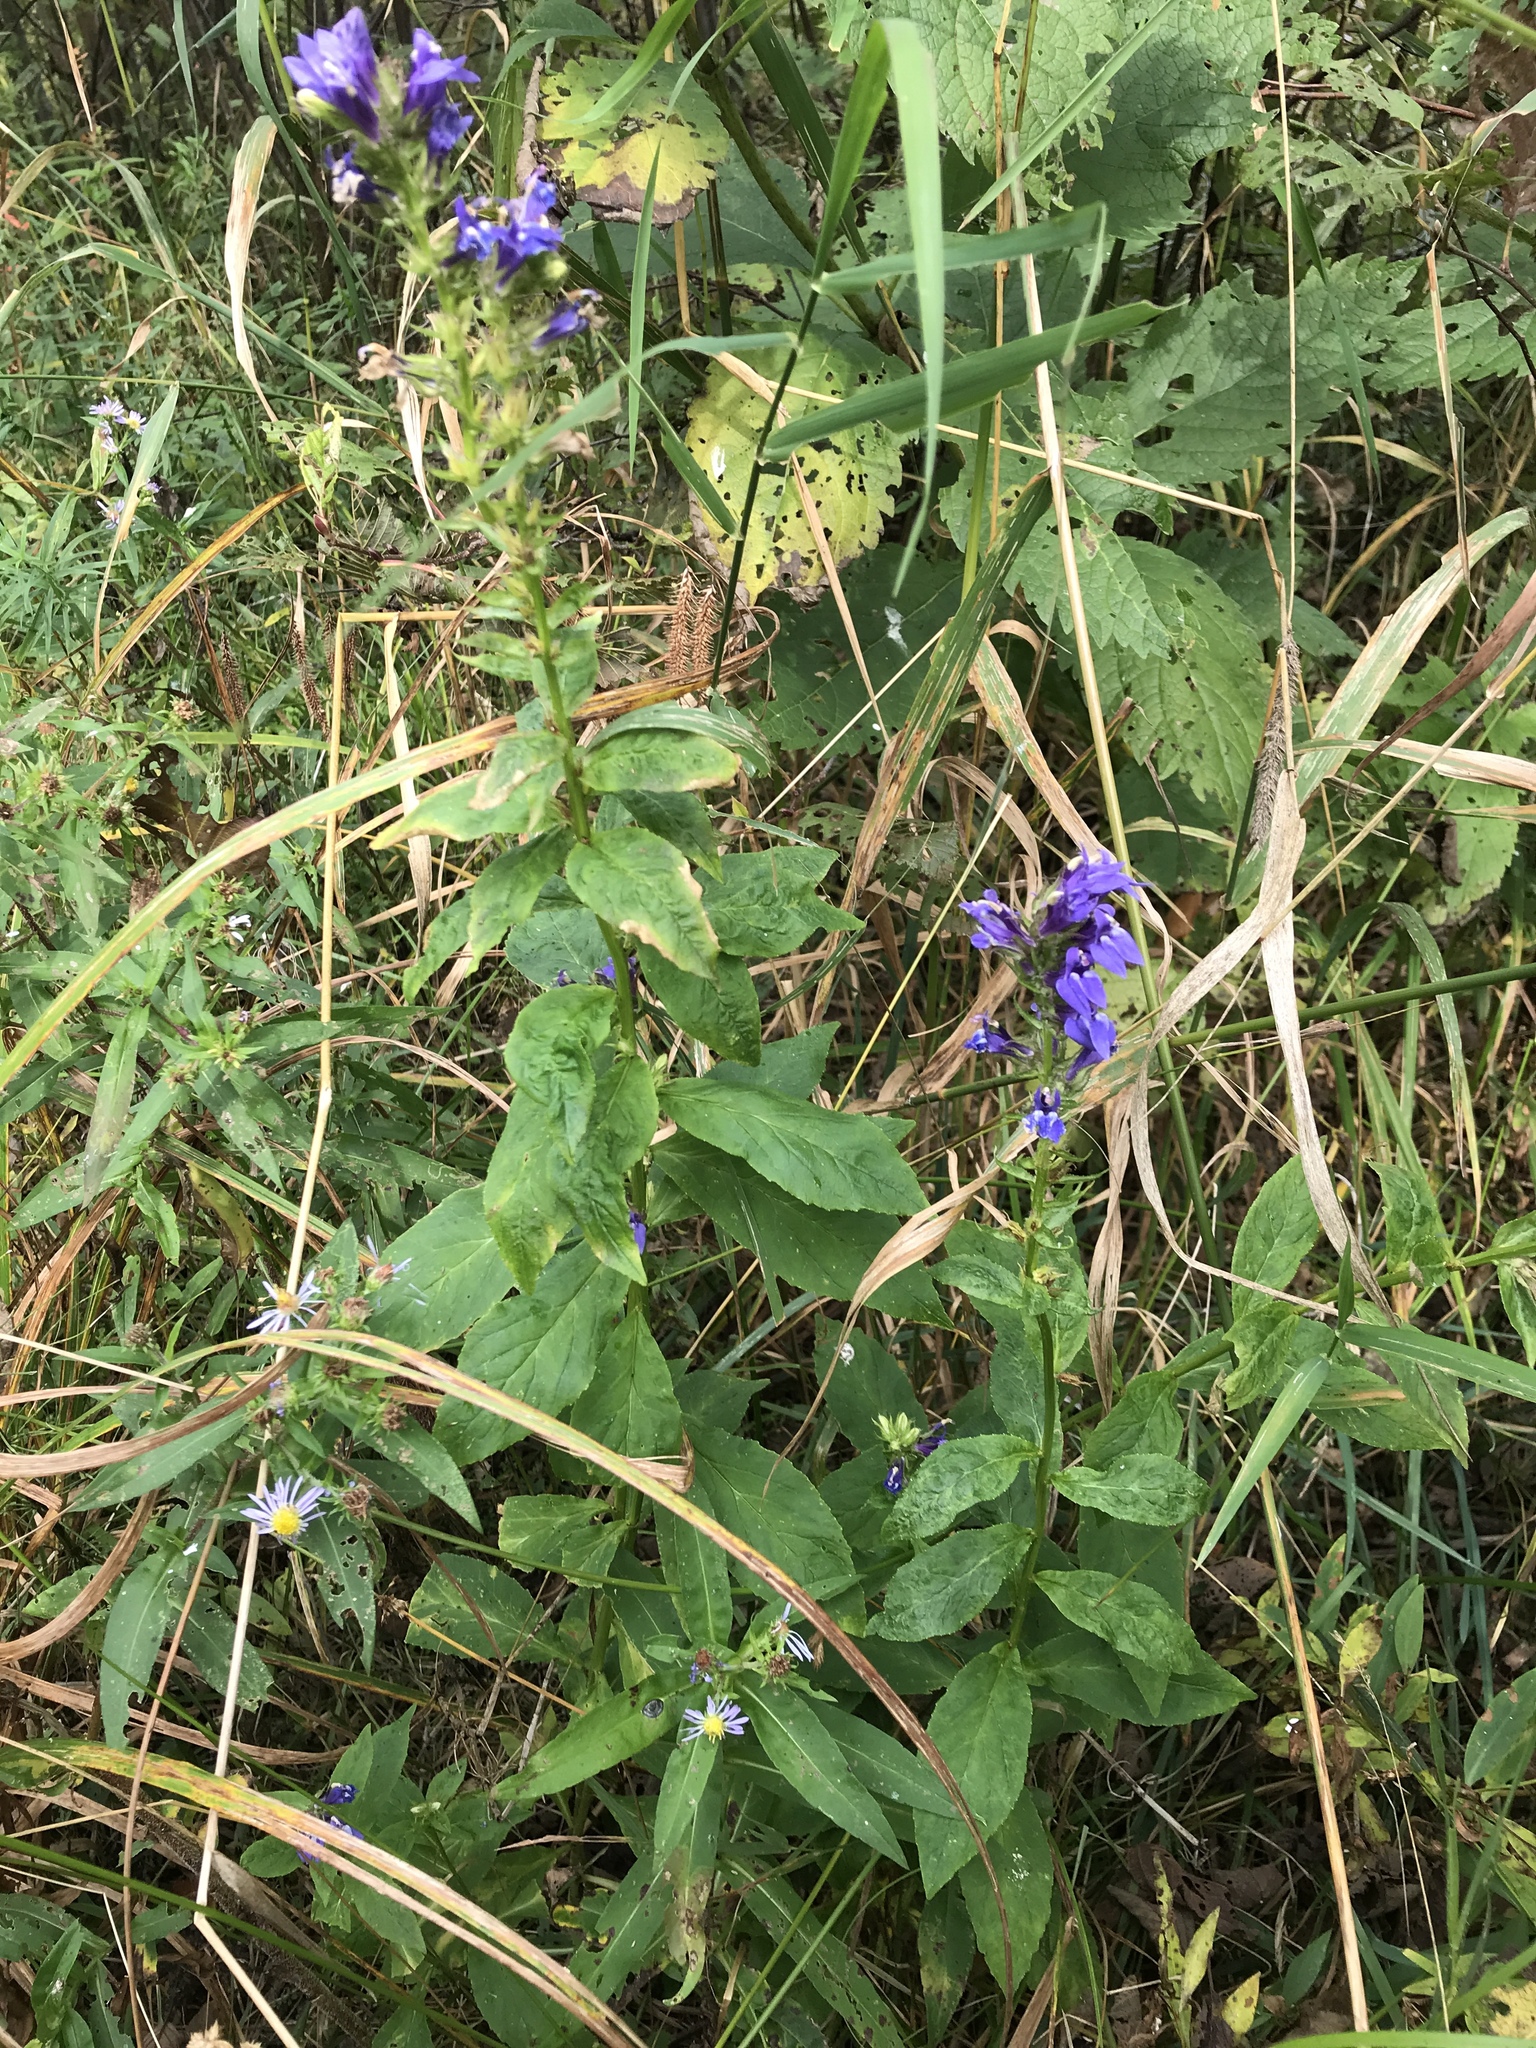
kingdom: Plantae
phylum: Tracheophyta
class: Magnoliopsida
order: Asterales
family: Campanulaceae
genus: Lobelia
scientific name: Lobelia siphilitica
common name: Great lobelia
